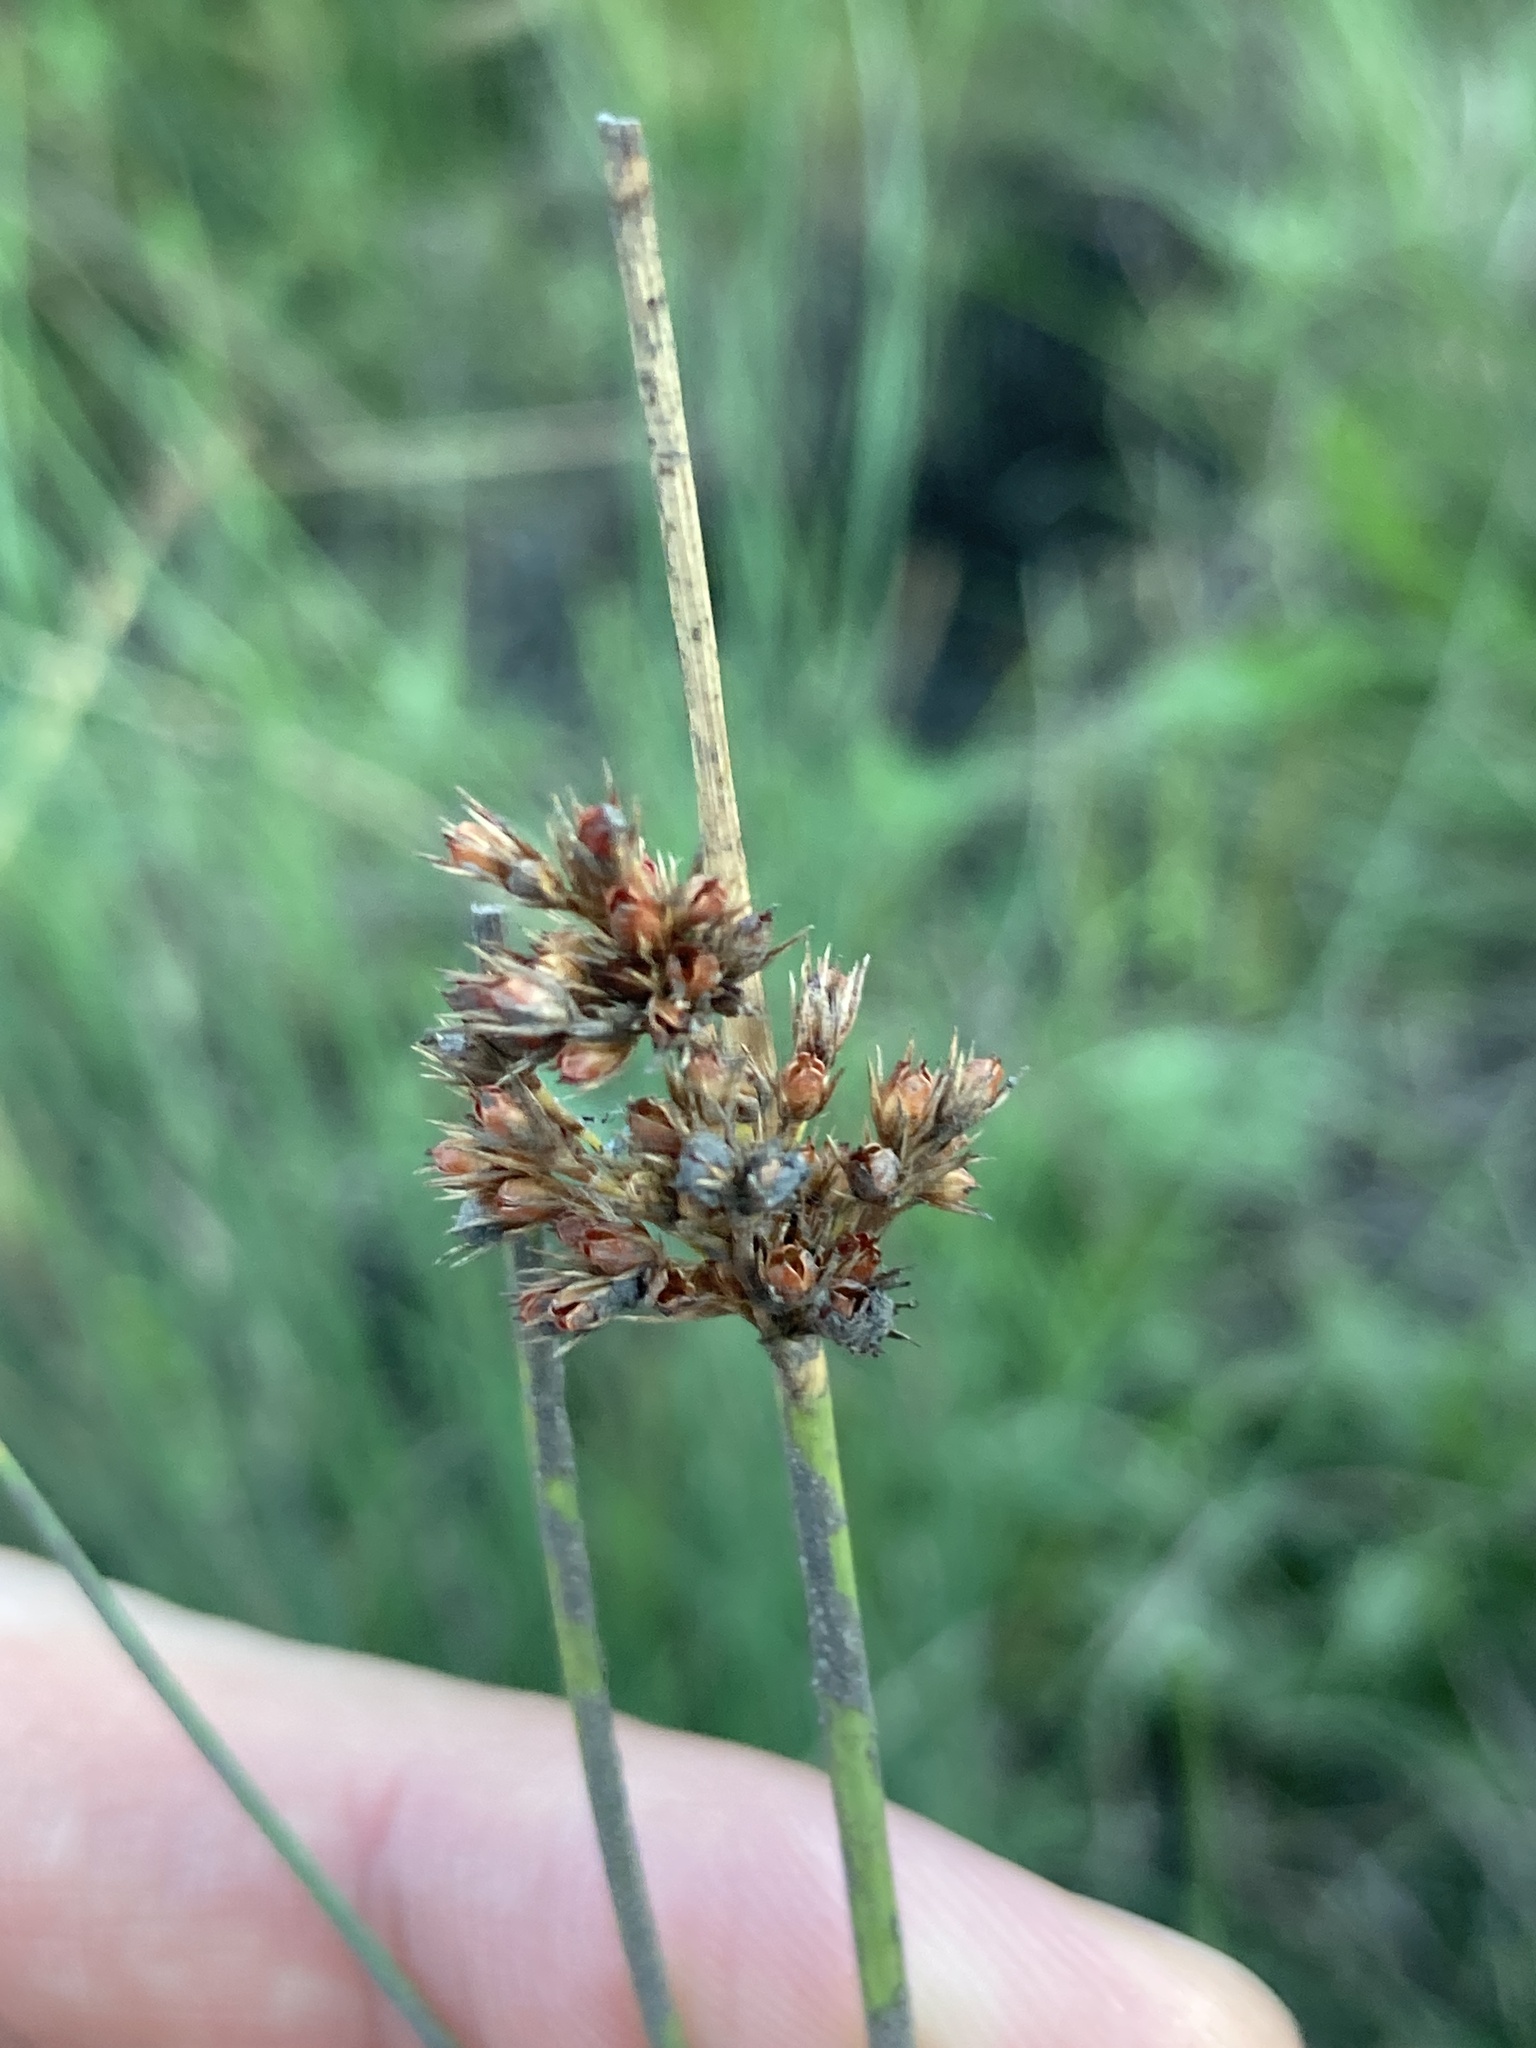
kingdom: Plantae
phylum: Tracheophyta
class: Liliopsida
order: Poales
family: Juncaceae
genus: Juncus
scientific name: Juncus inflexus
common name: Hard rush
